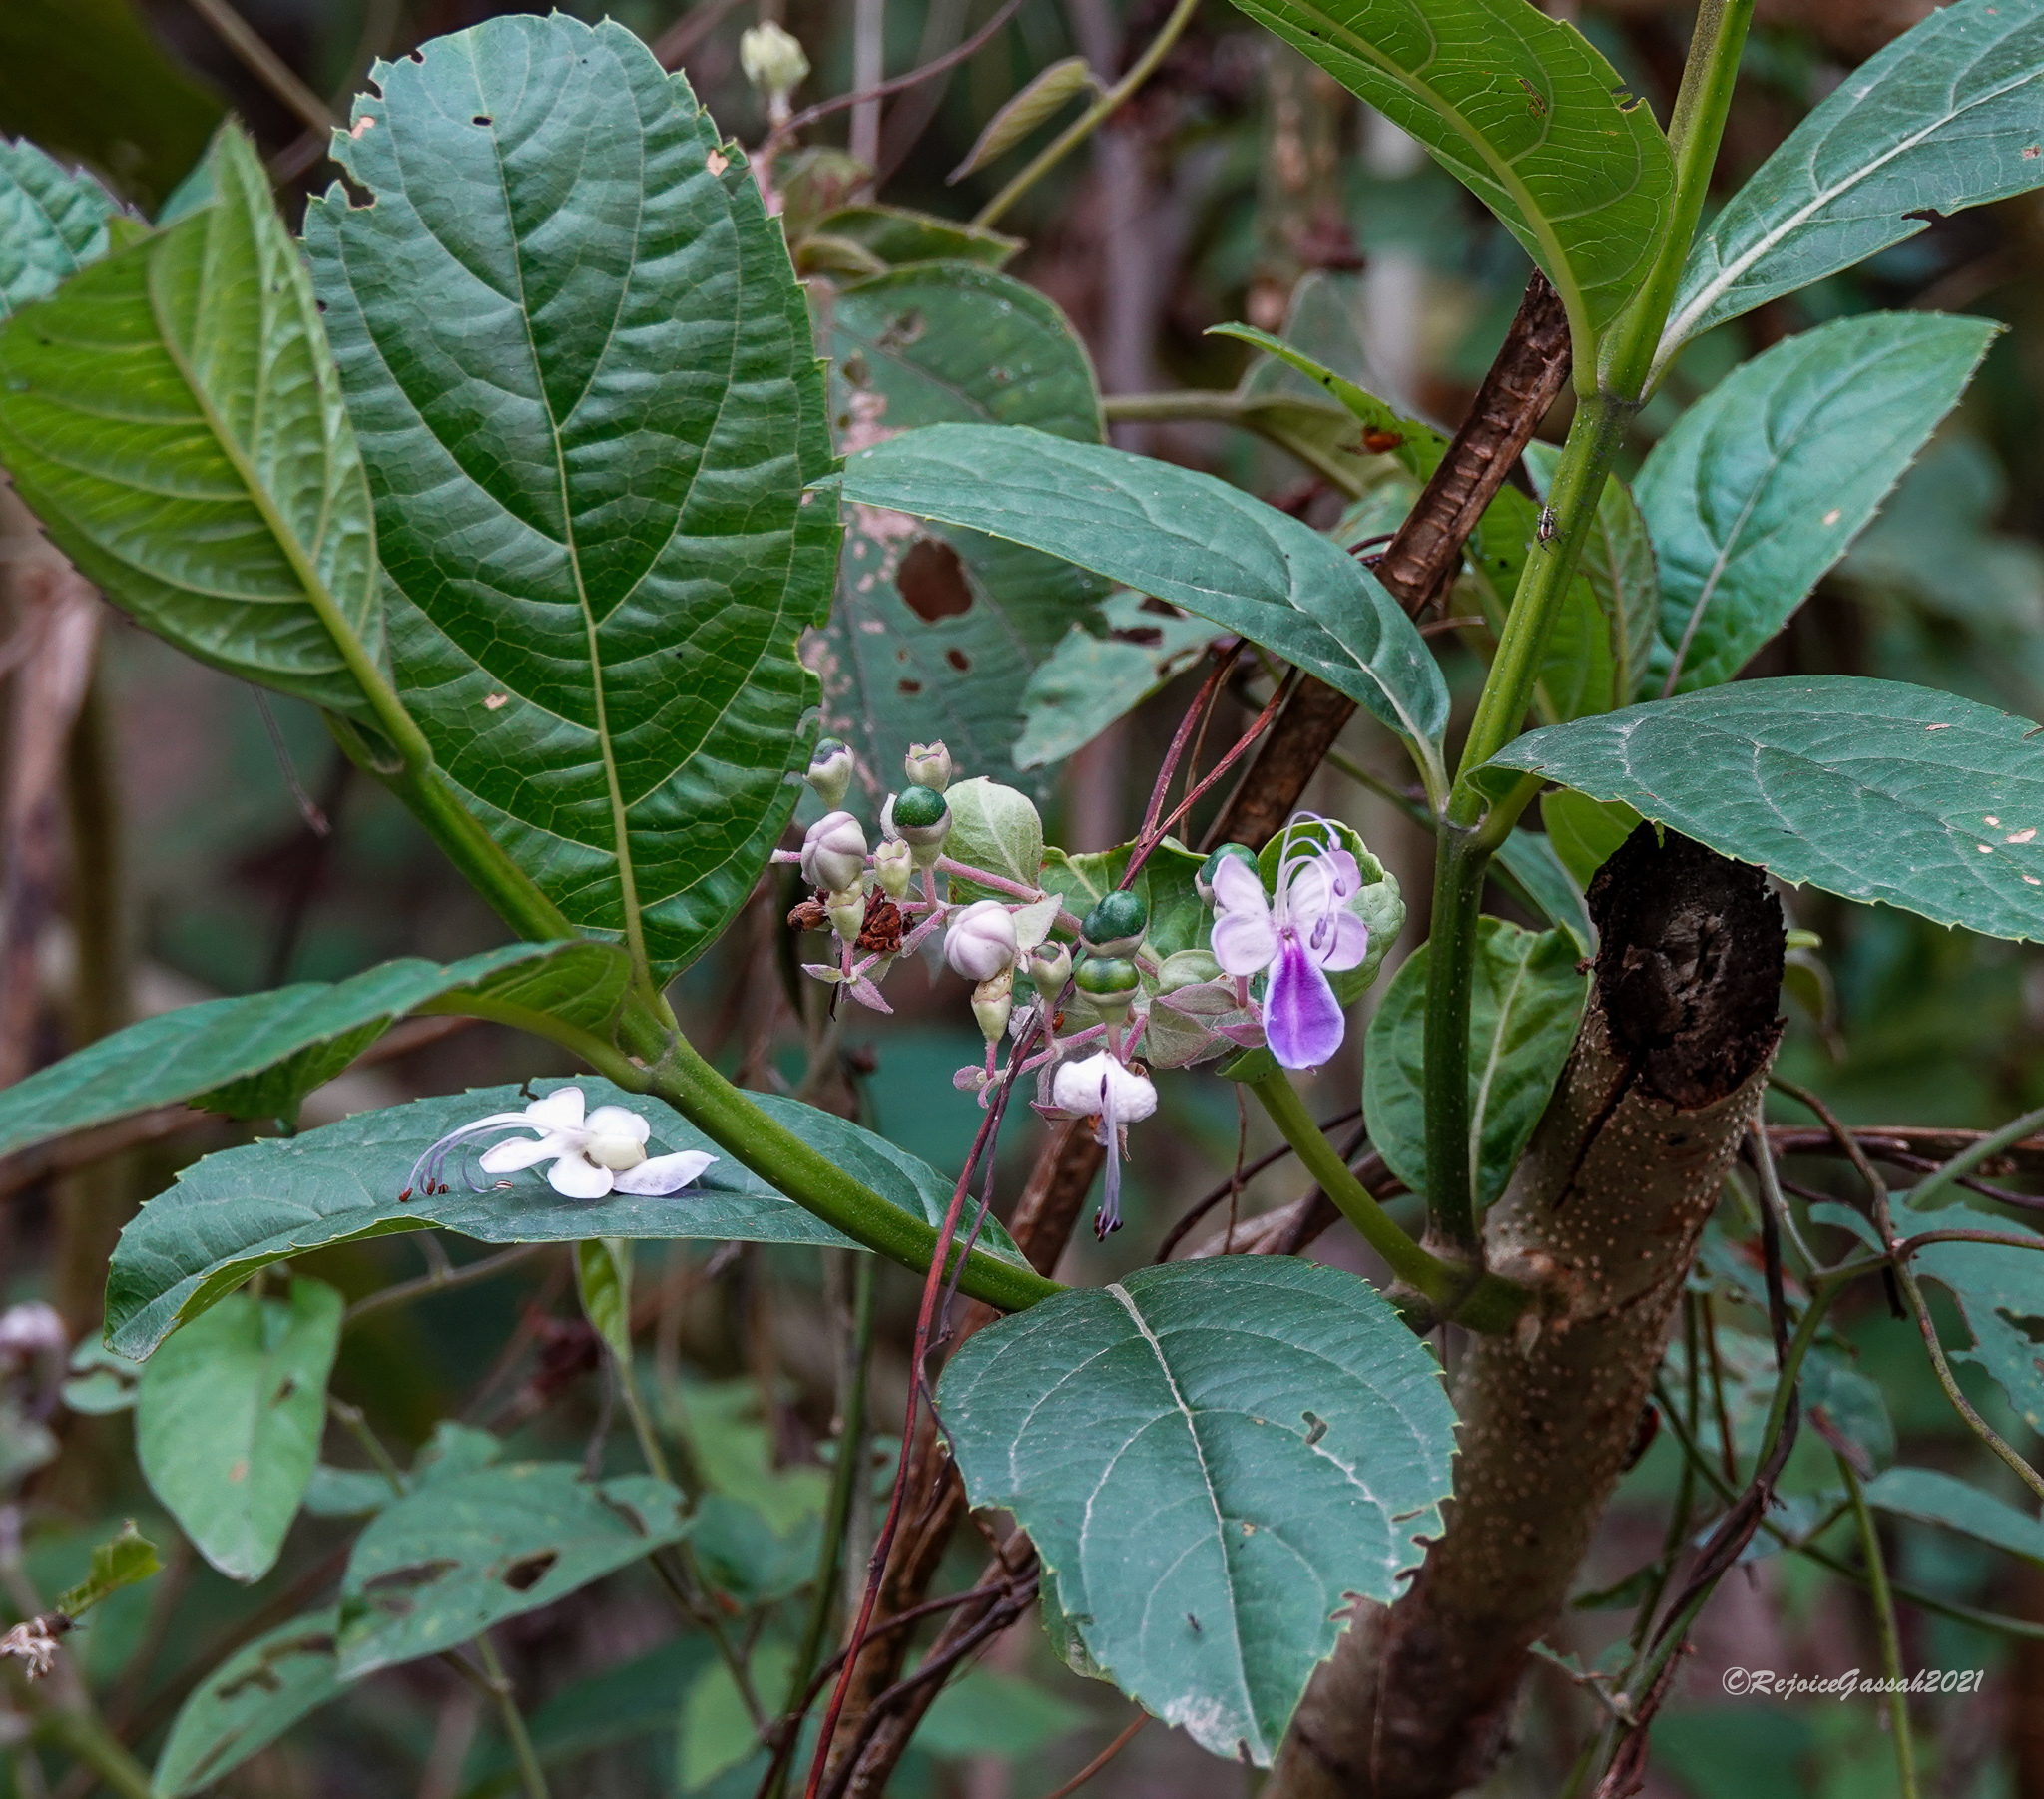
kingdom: Plantae
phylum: Tracheophyta
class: Magnoliopsida
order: Lamiales
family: Lamiaceae
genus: Rotheca
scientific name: Rotheca serrata
